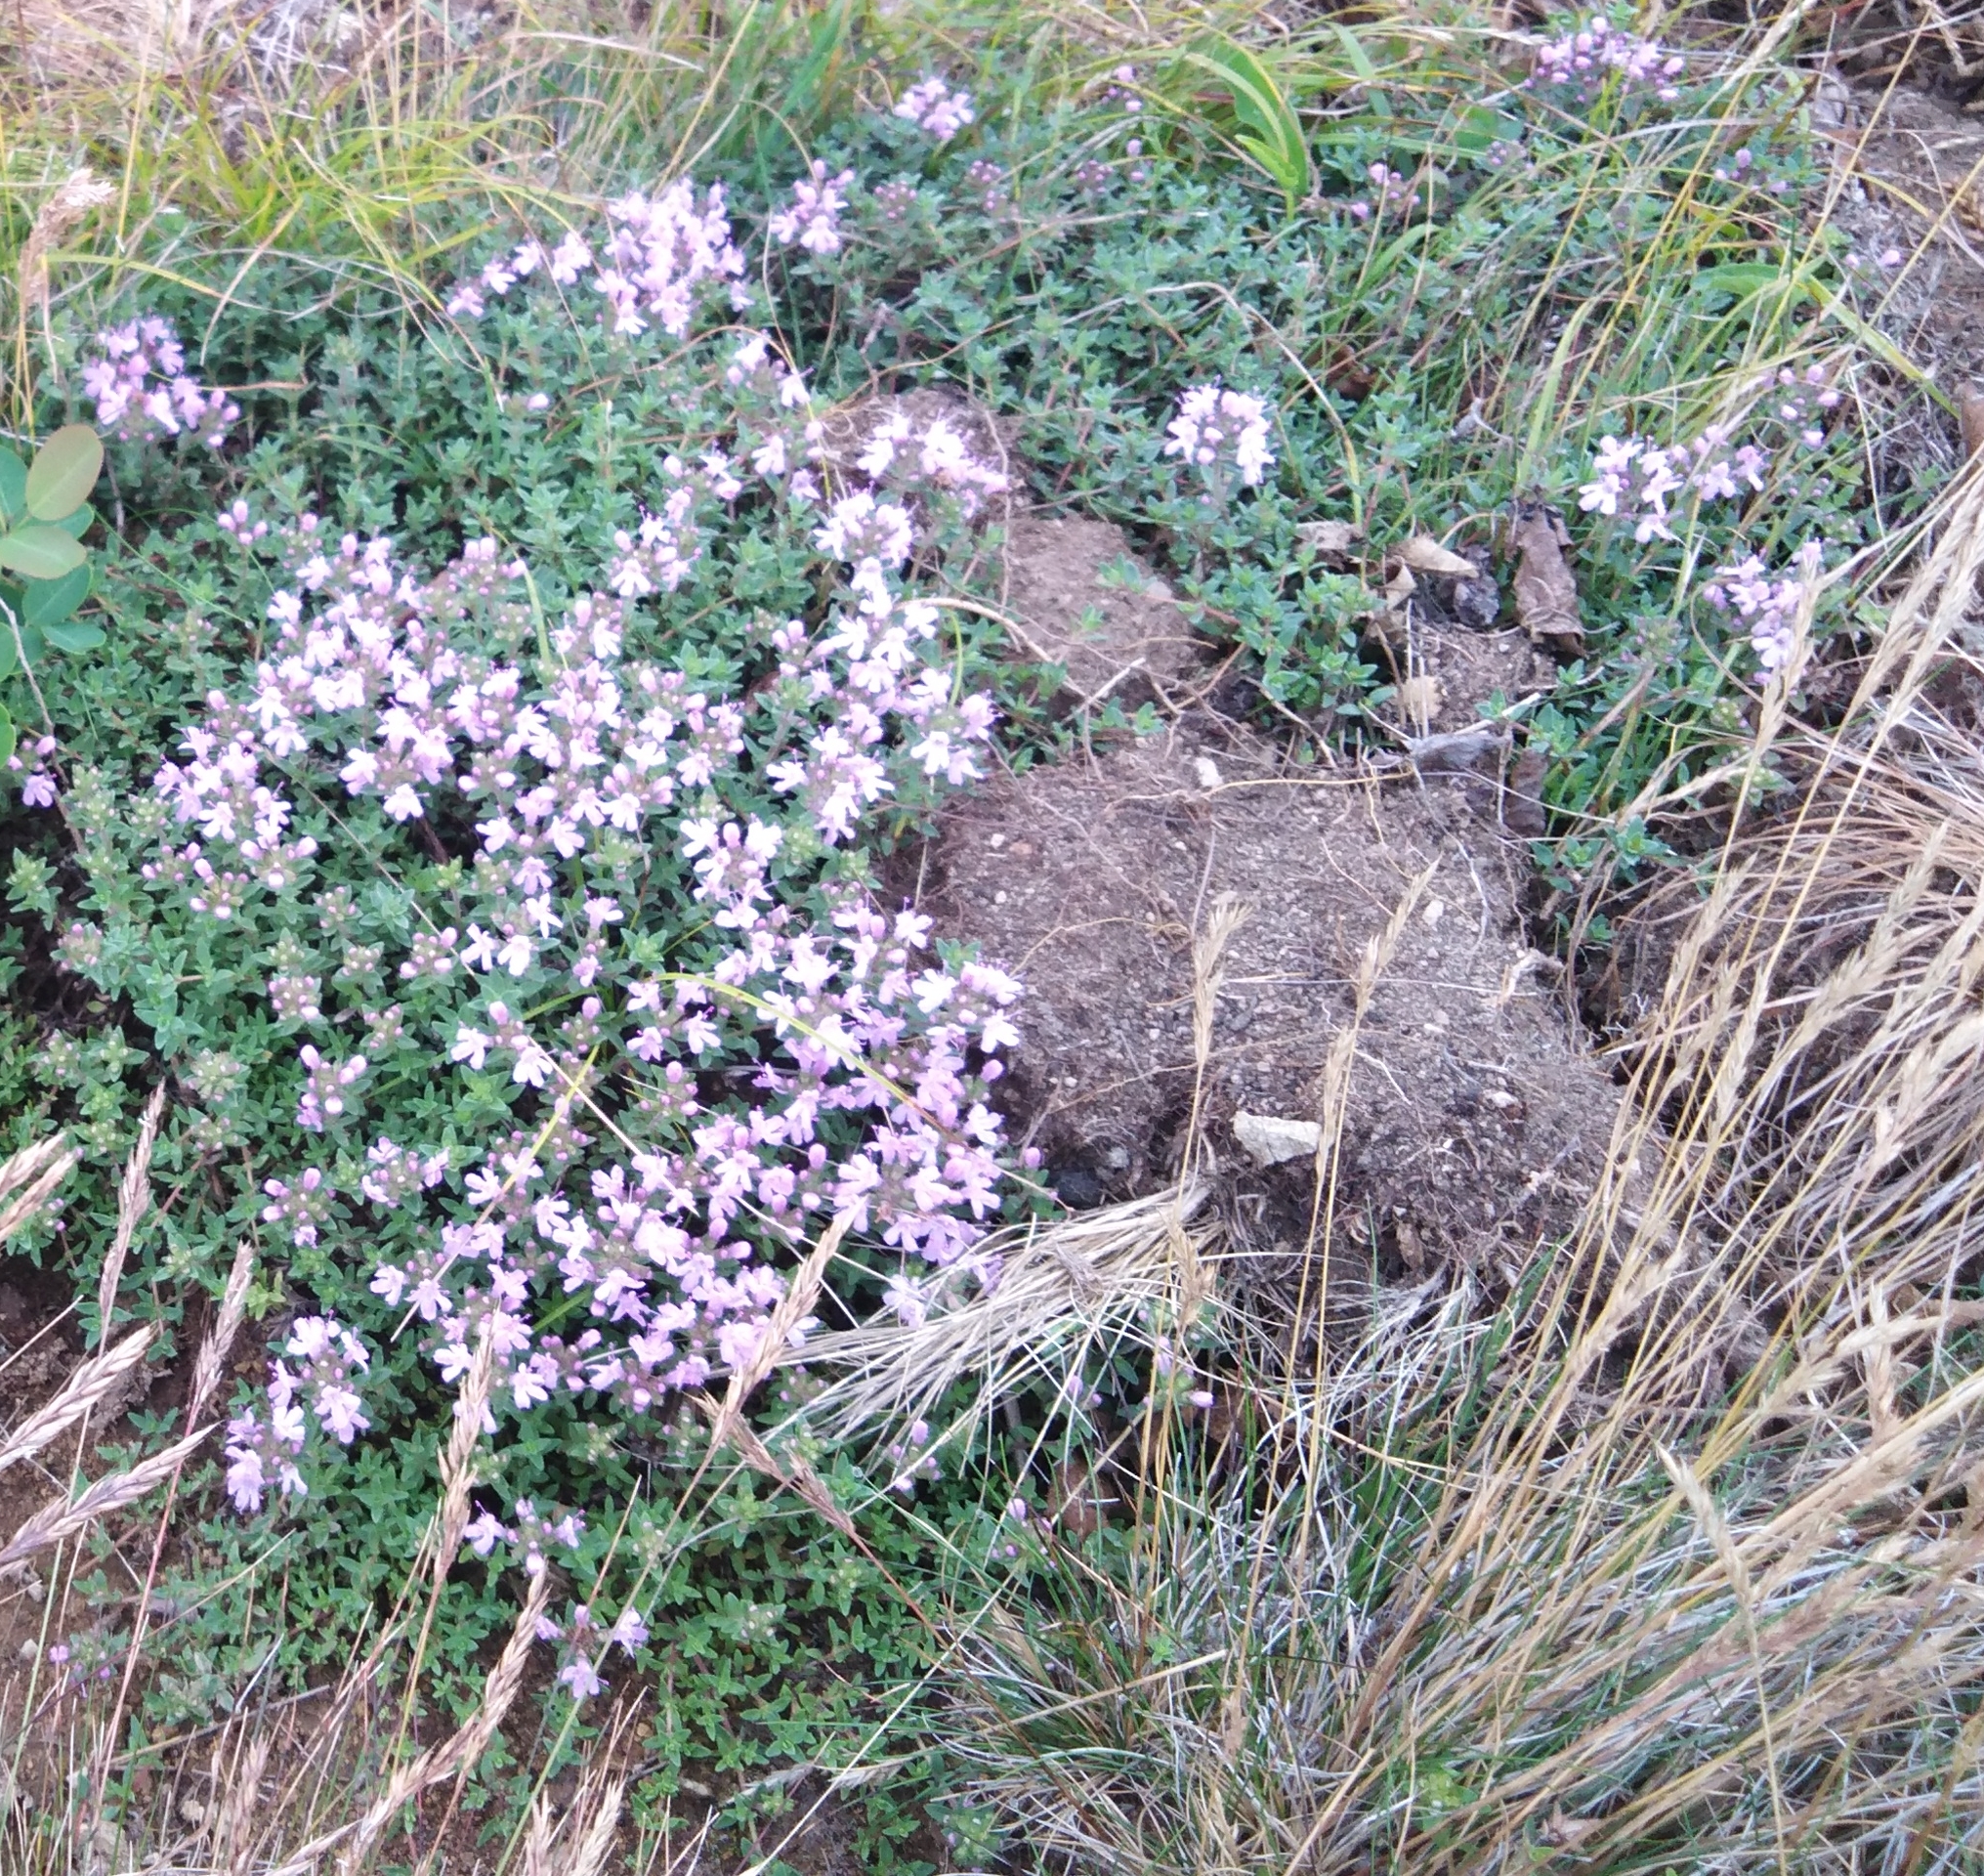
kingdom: Plantae
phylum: Tracheophyta
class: Magnoliopsida
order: Lamiales
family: Lamiaceae
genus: Thymus
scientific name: Thymus ternejicus
